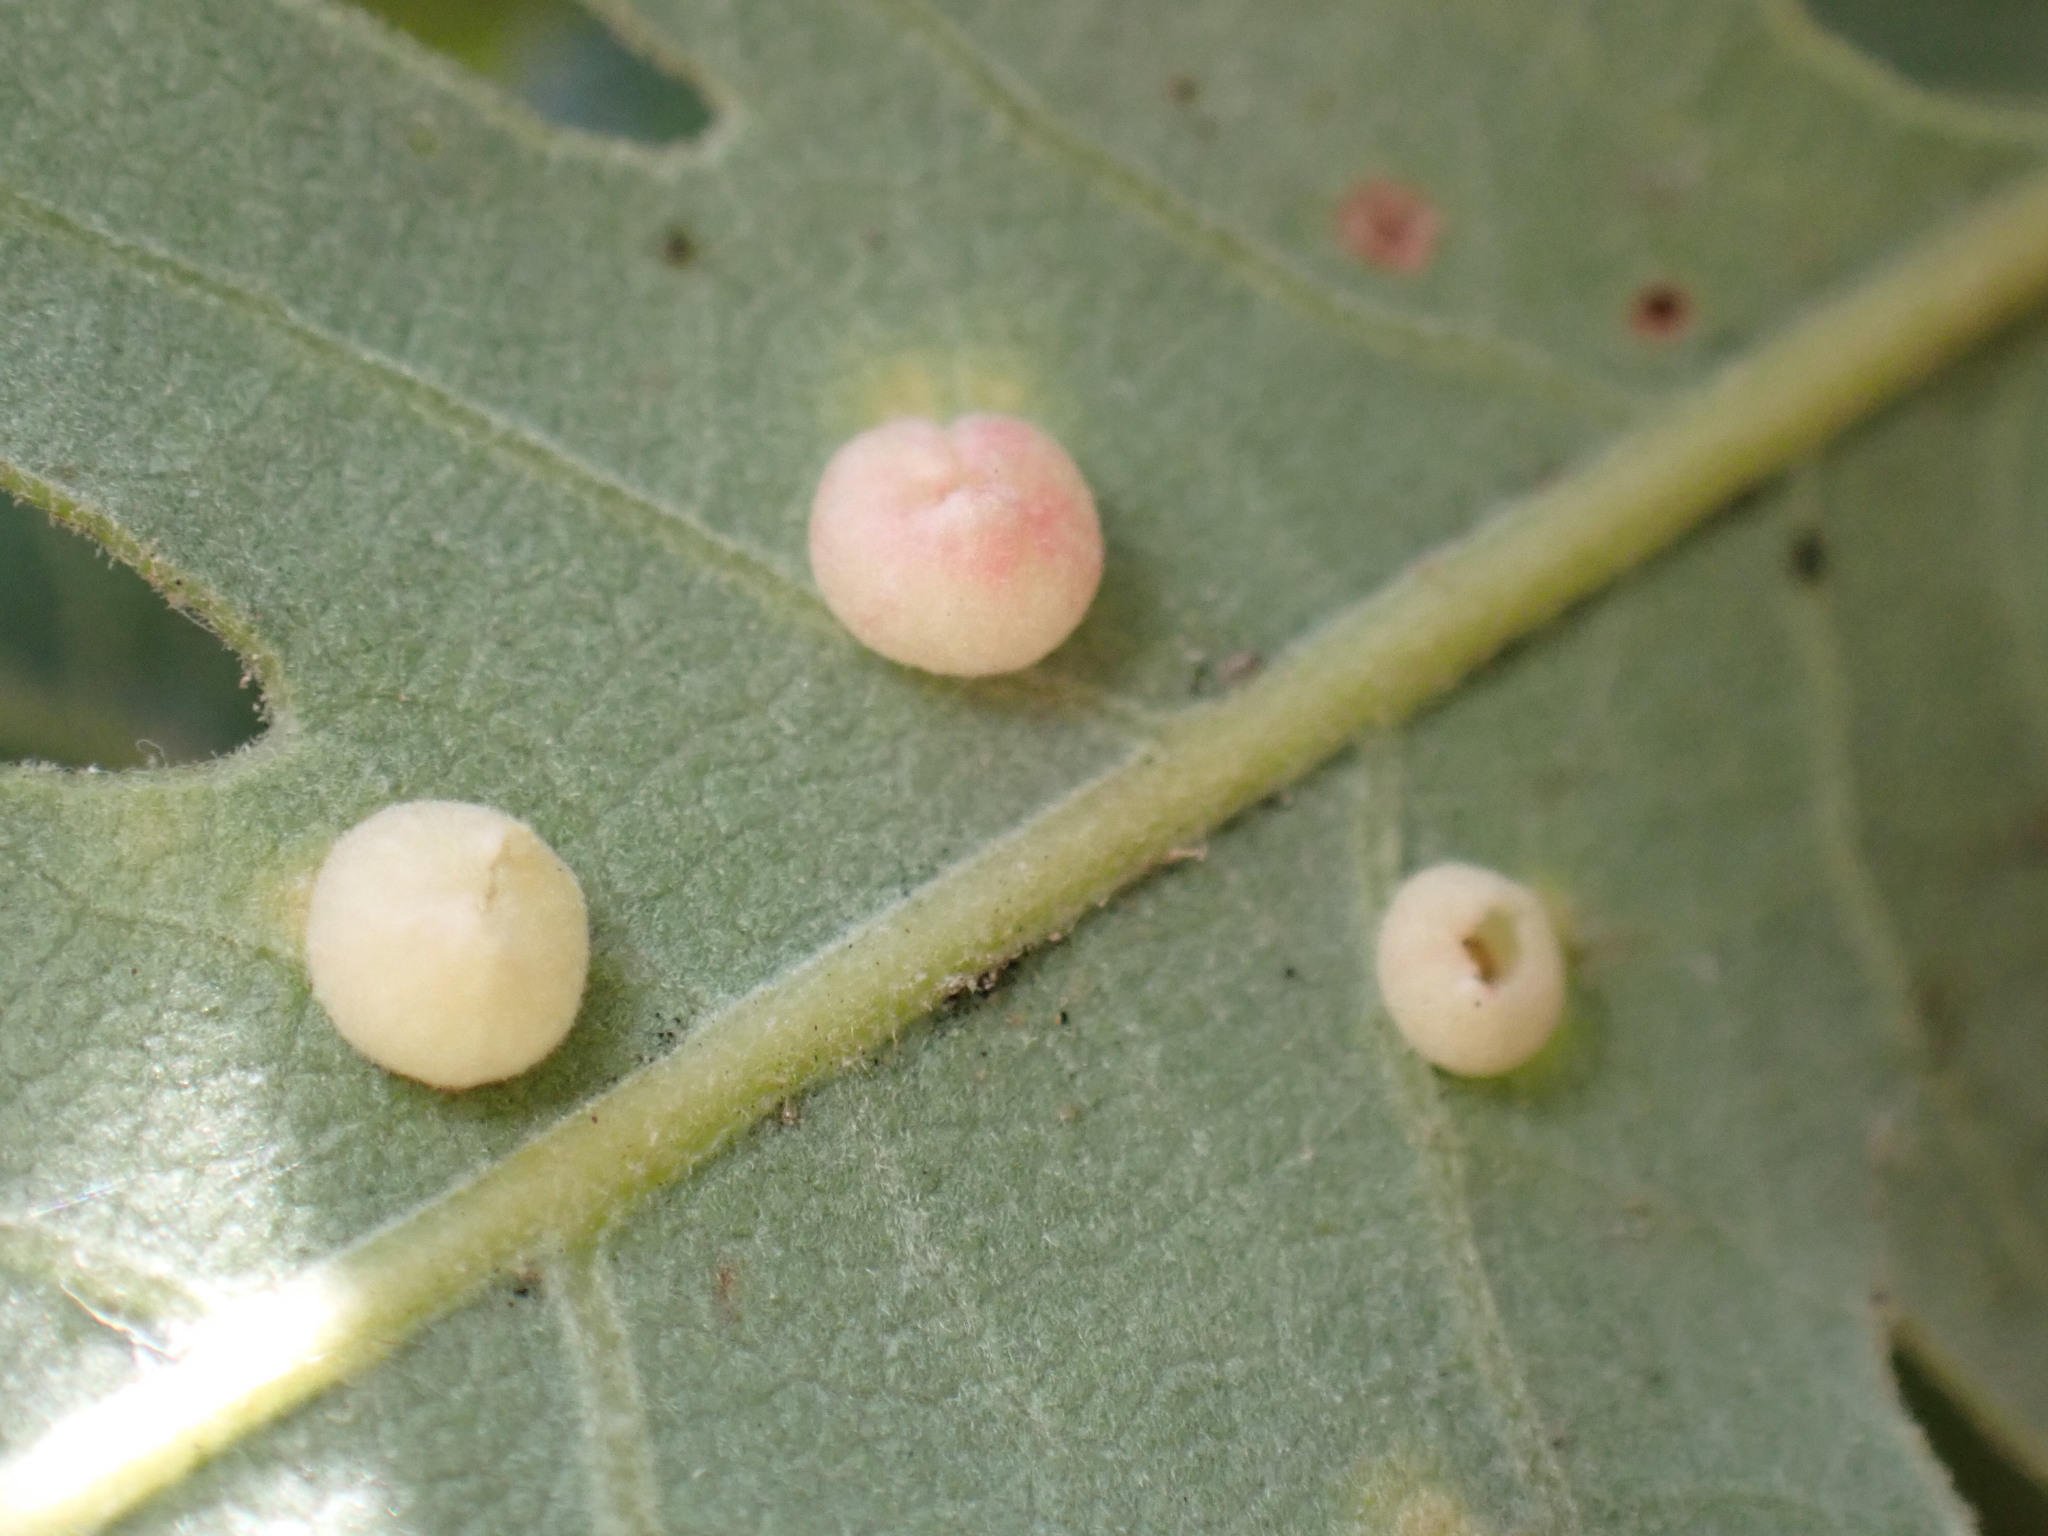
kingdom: Animalia
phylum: Arthropoda
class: Insecta
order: Hymenoptera
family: Cynipidae
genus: Andricus
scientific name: Andricus
